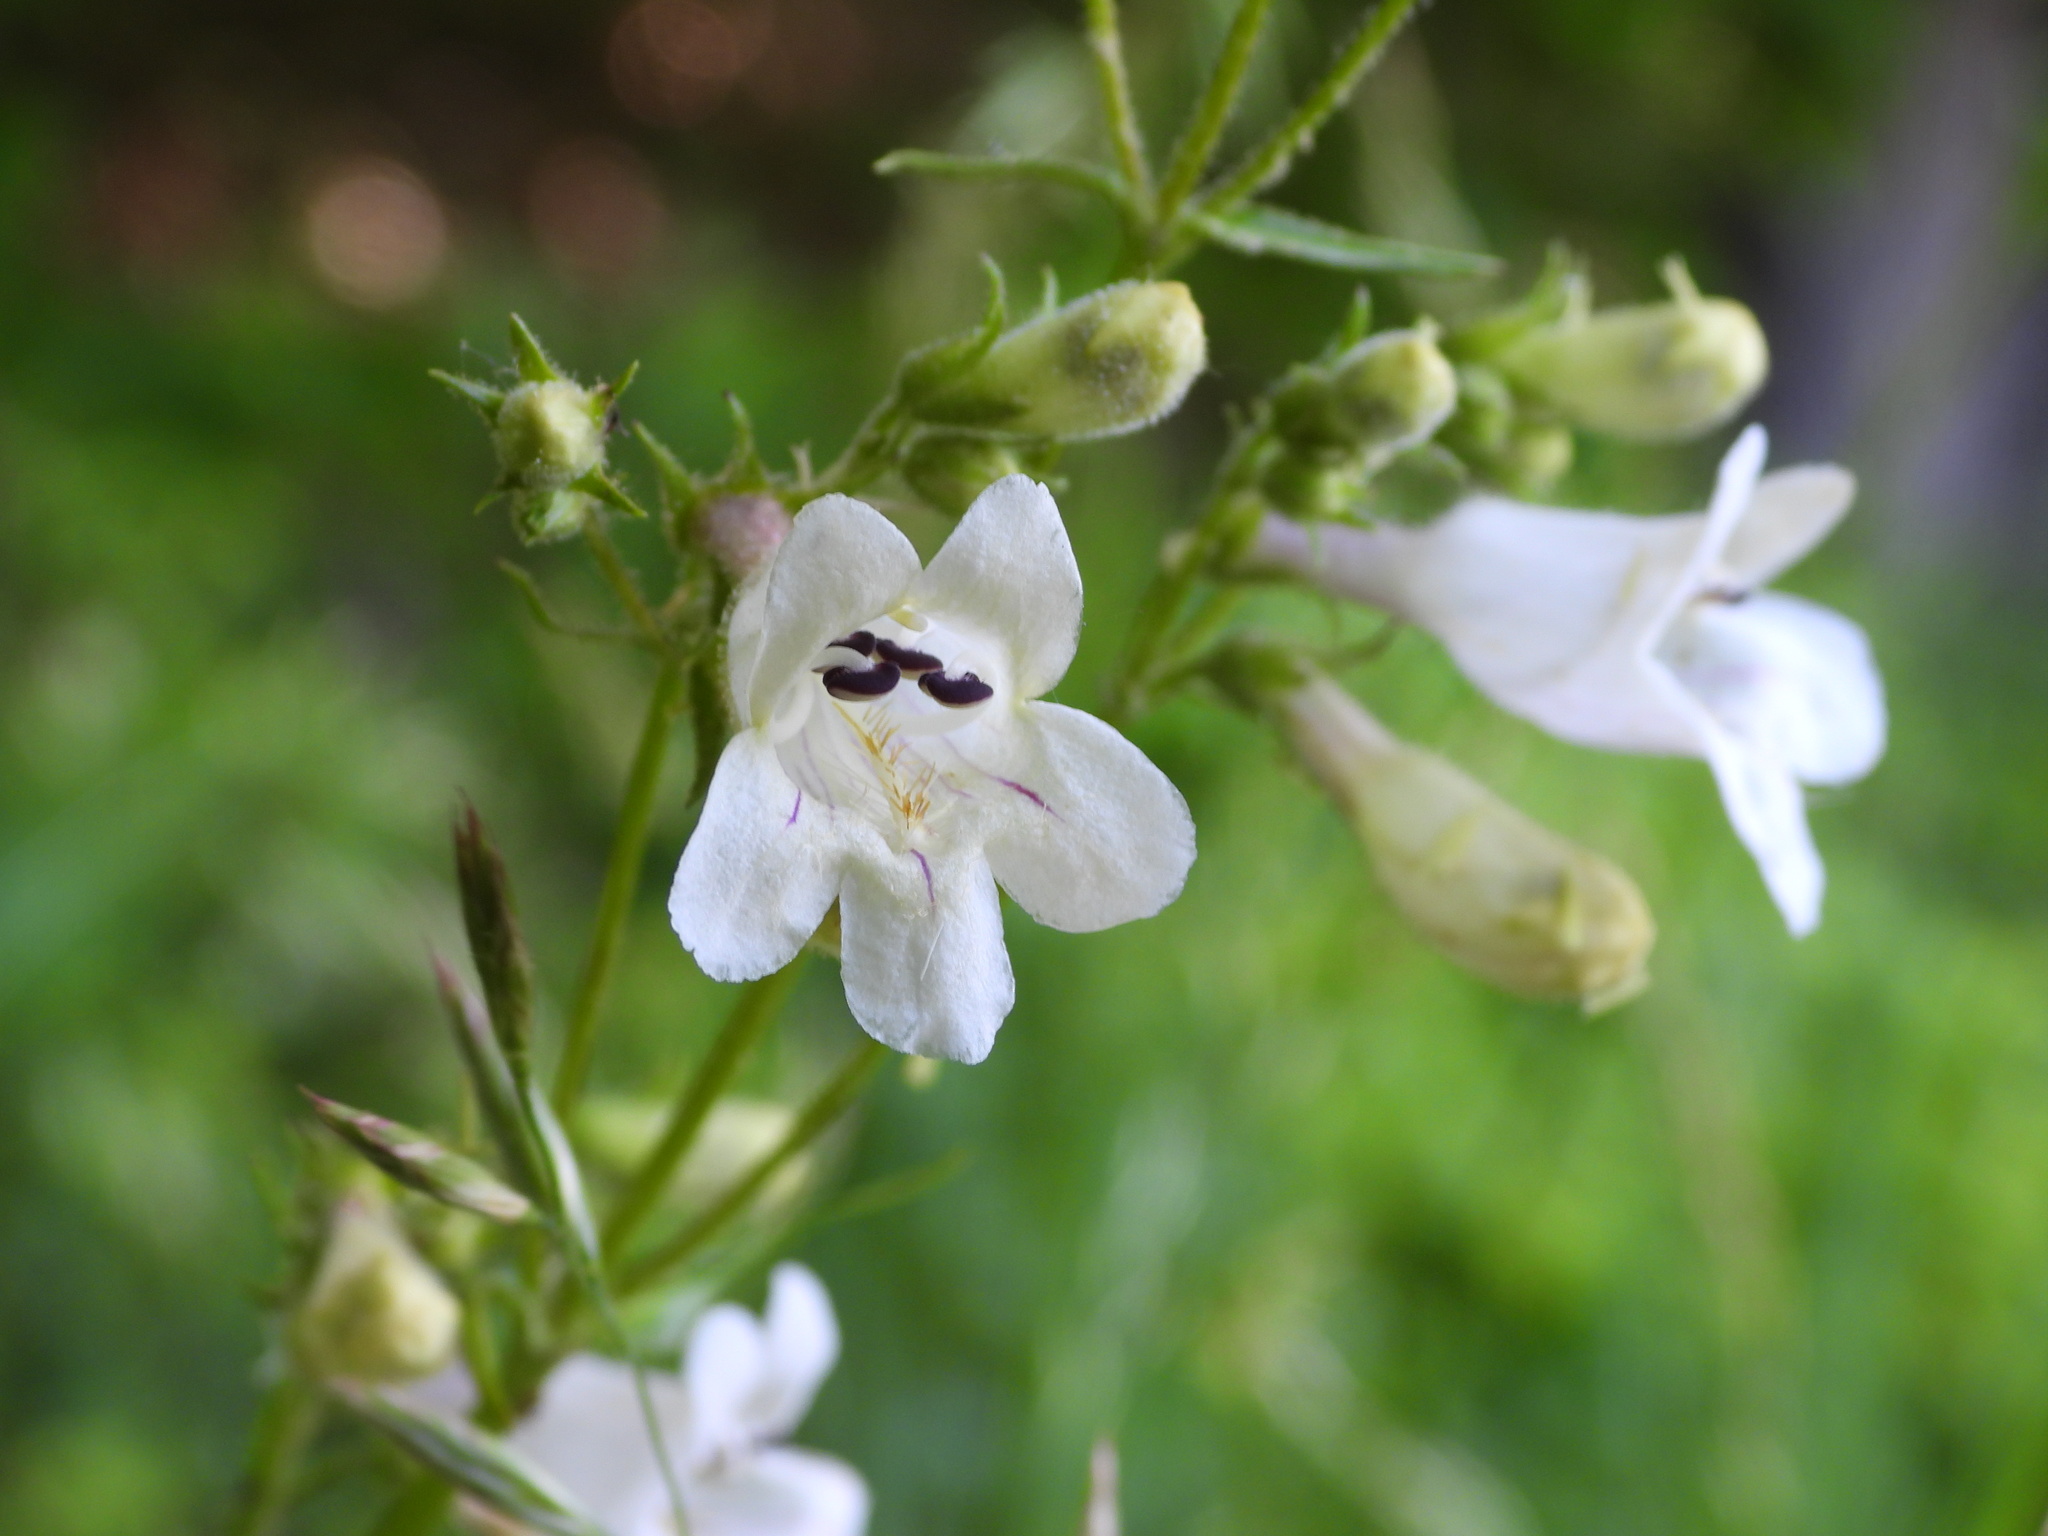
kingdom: Plantae
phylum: Tracheophyta
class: Magnoliopsida
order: Lamiales
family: Plantaginaceae
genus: Penstemon
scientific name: Penstemon digitalis
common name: Foxglove beardtongue
